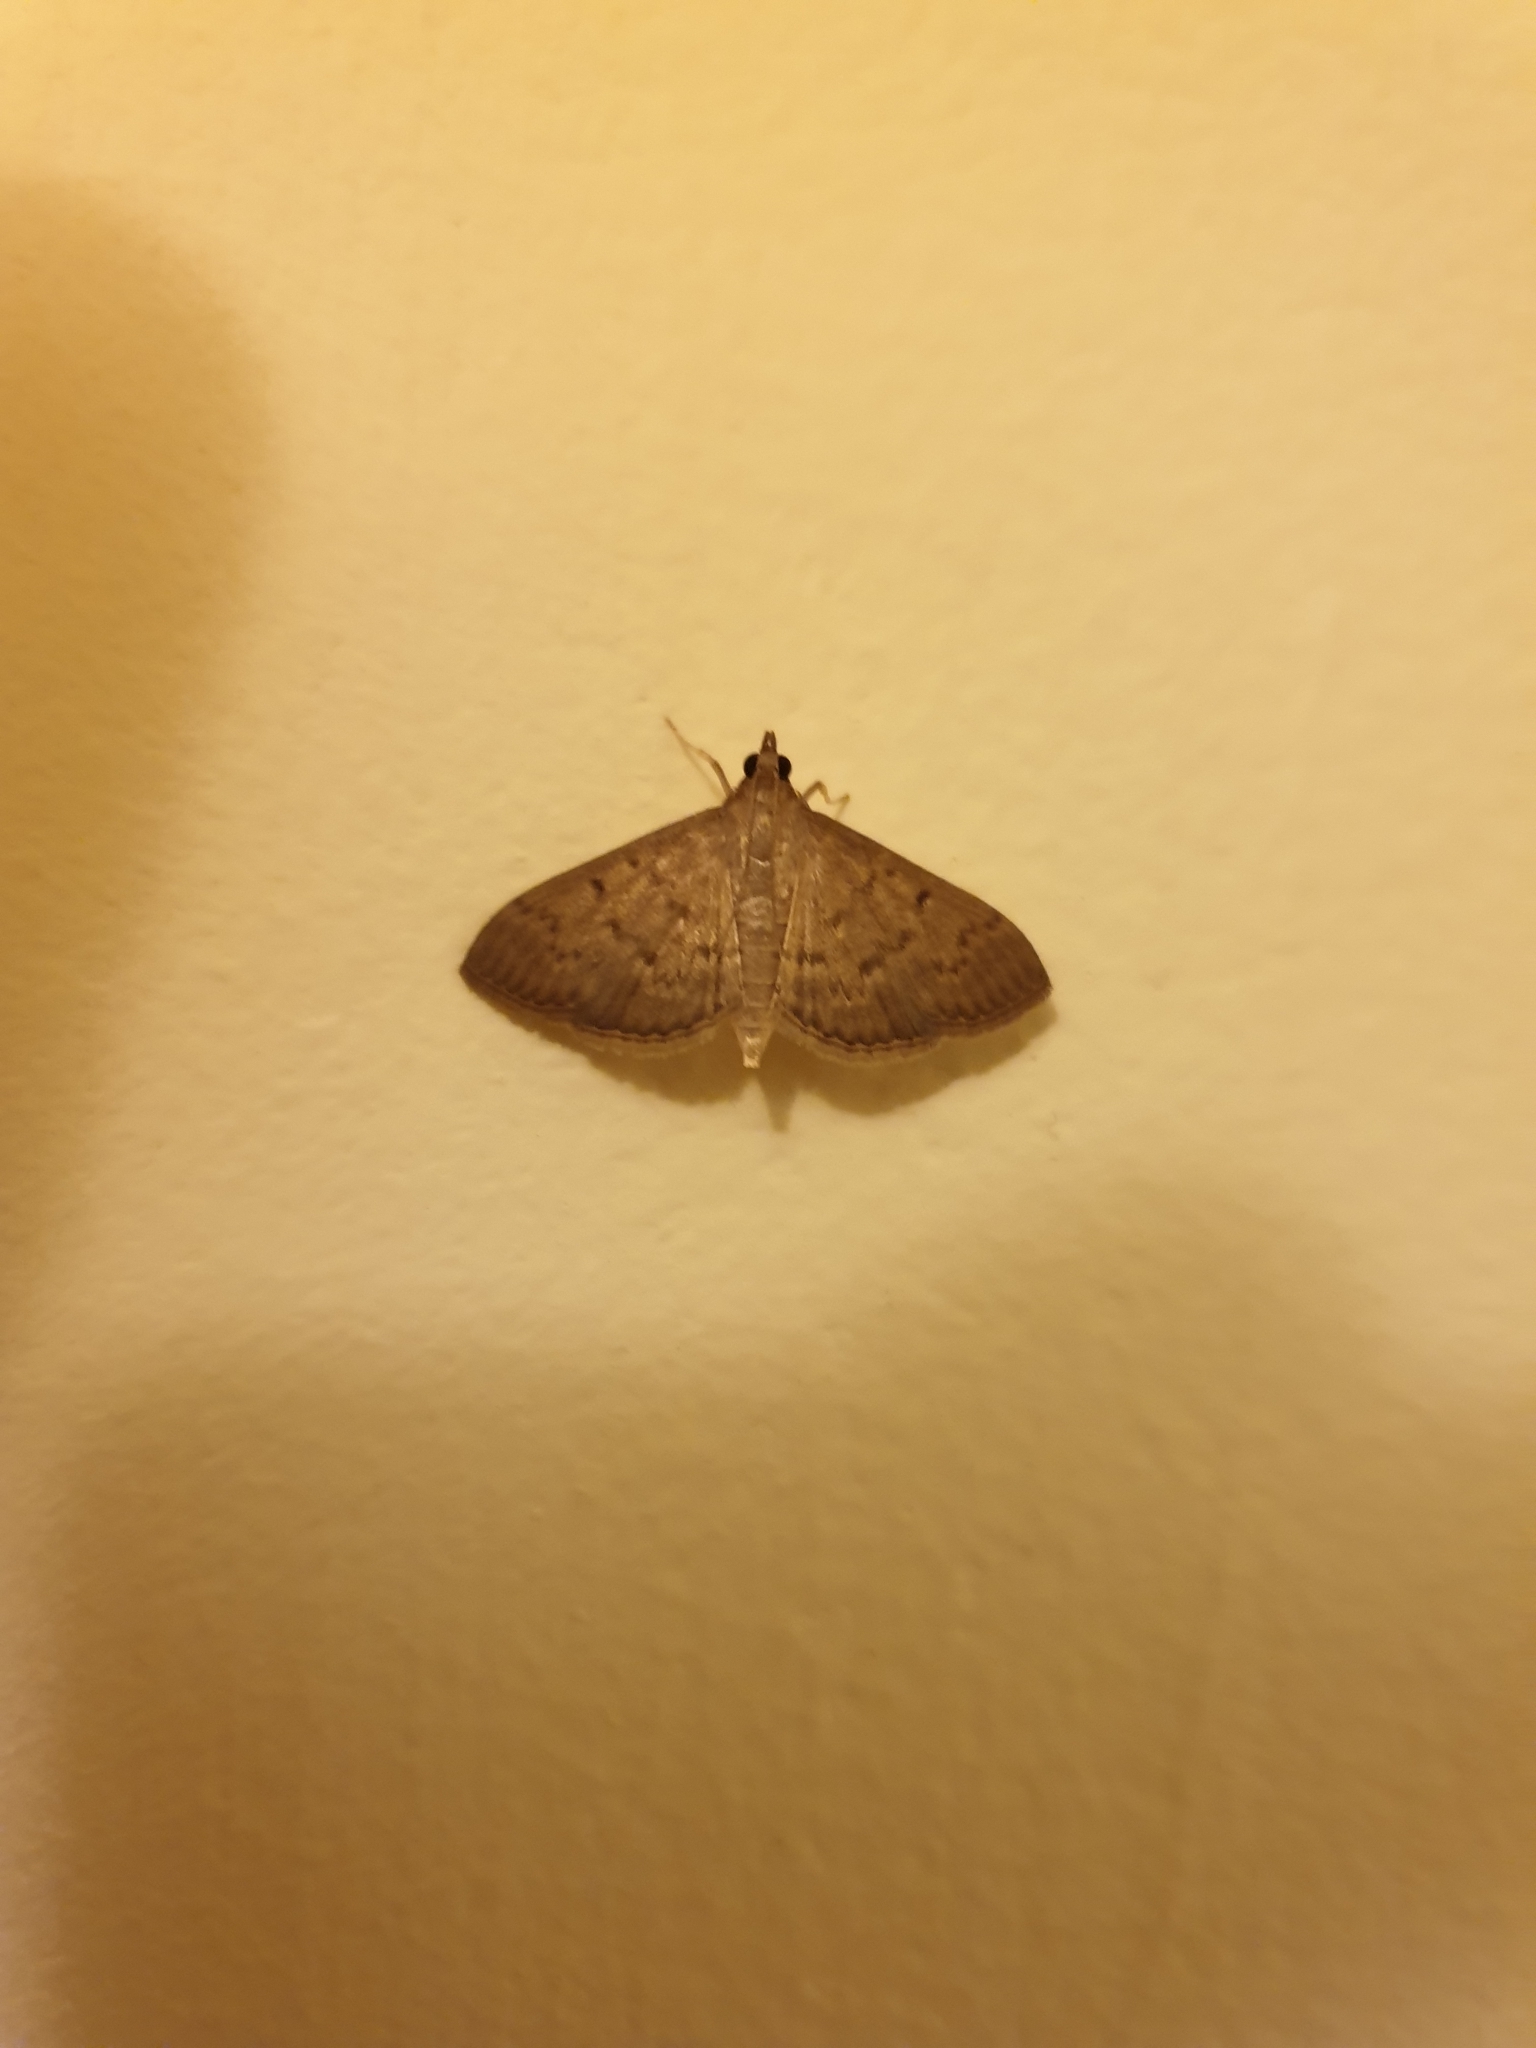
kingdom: Animalia
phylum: Arthropoda
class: Insecta
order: Lepidoptera
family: Crambidae
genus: Herpetogramma
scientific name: Herpetogramma licarsisalis
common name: Grass webworm
